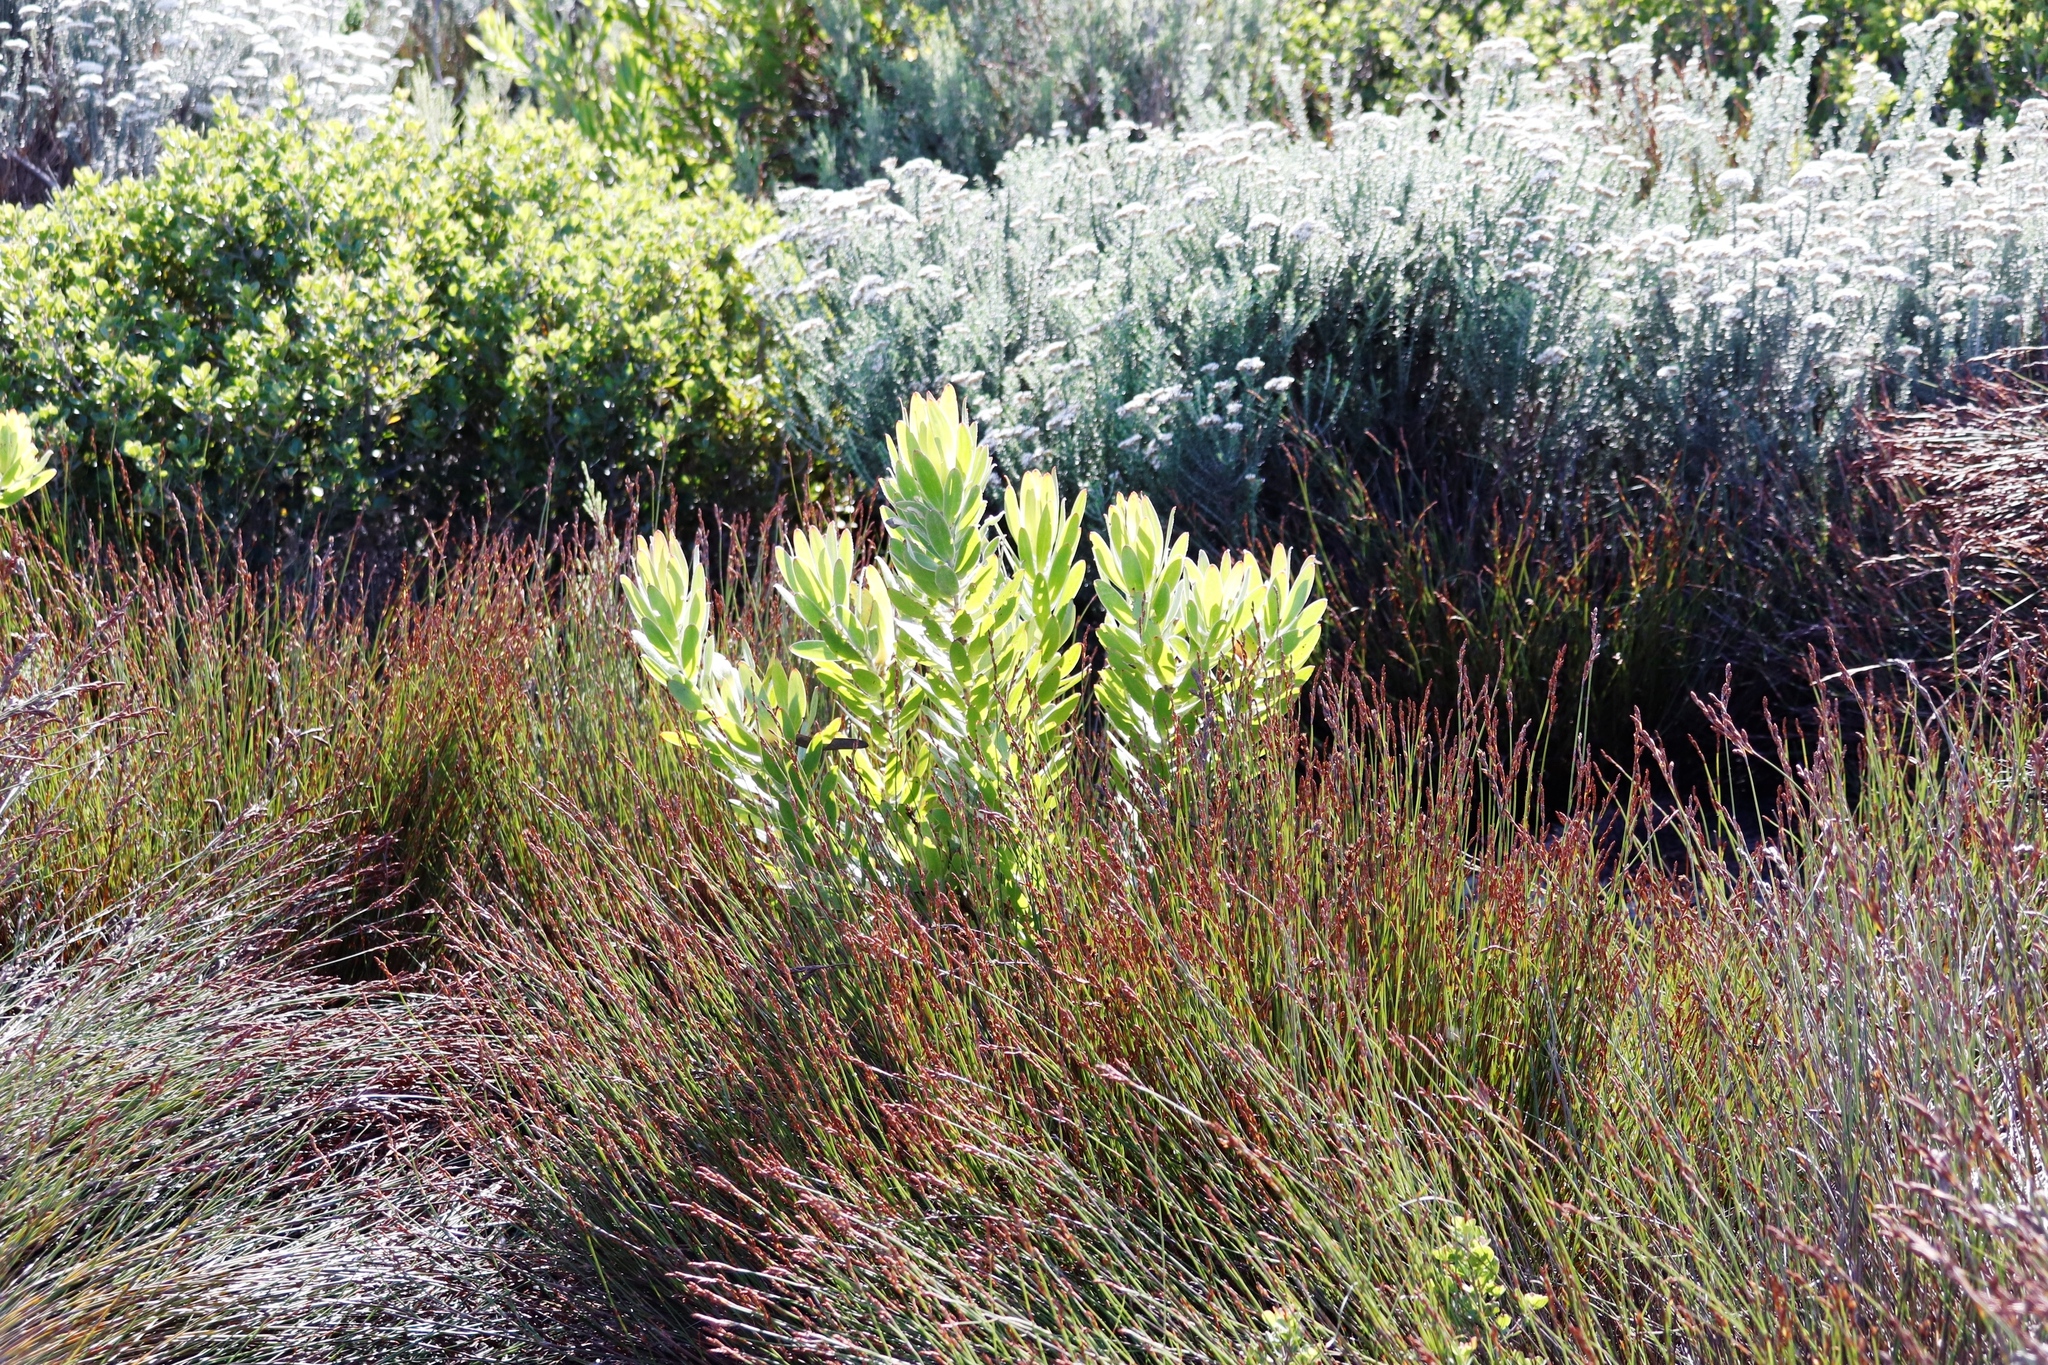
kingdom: Plantae
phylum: Tracheophyta
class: Magnoliopsida
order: Proteales
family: Proteaceae
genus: Leucadendron
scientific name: Leucadendron laureolum
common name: Golden sunshinebush
